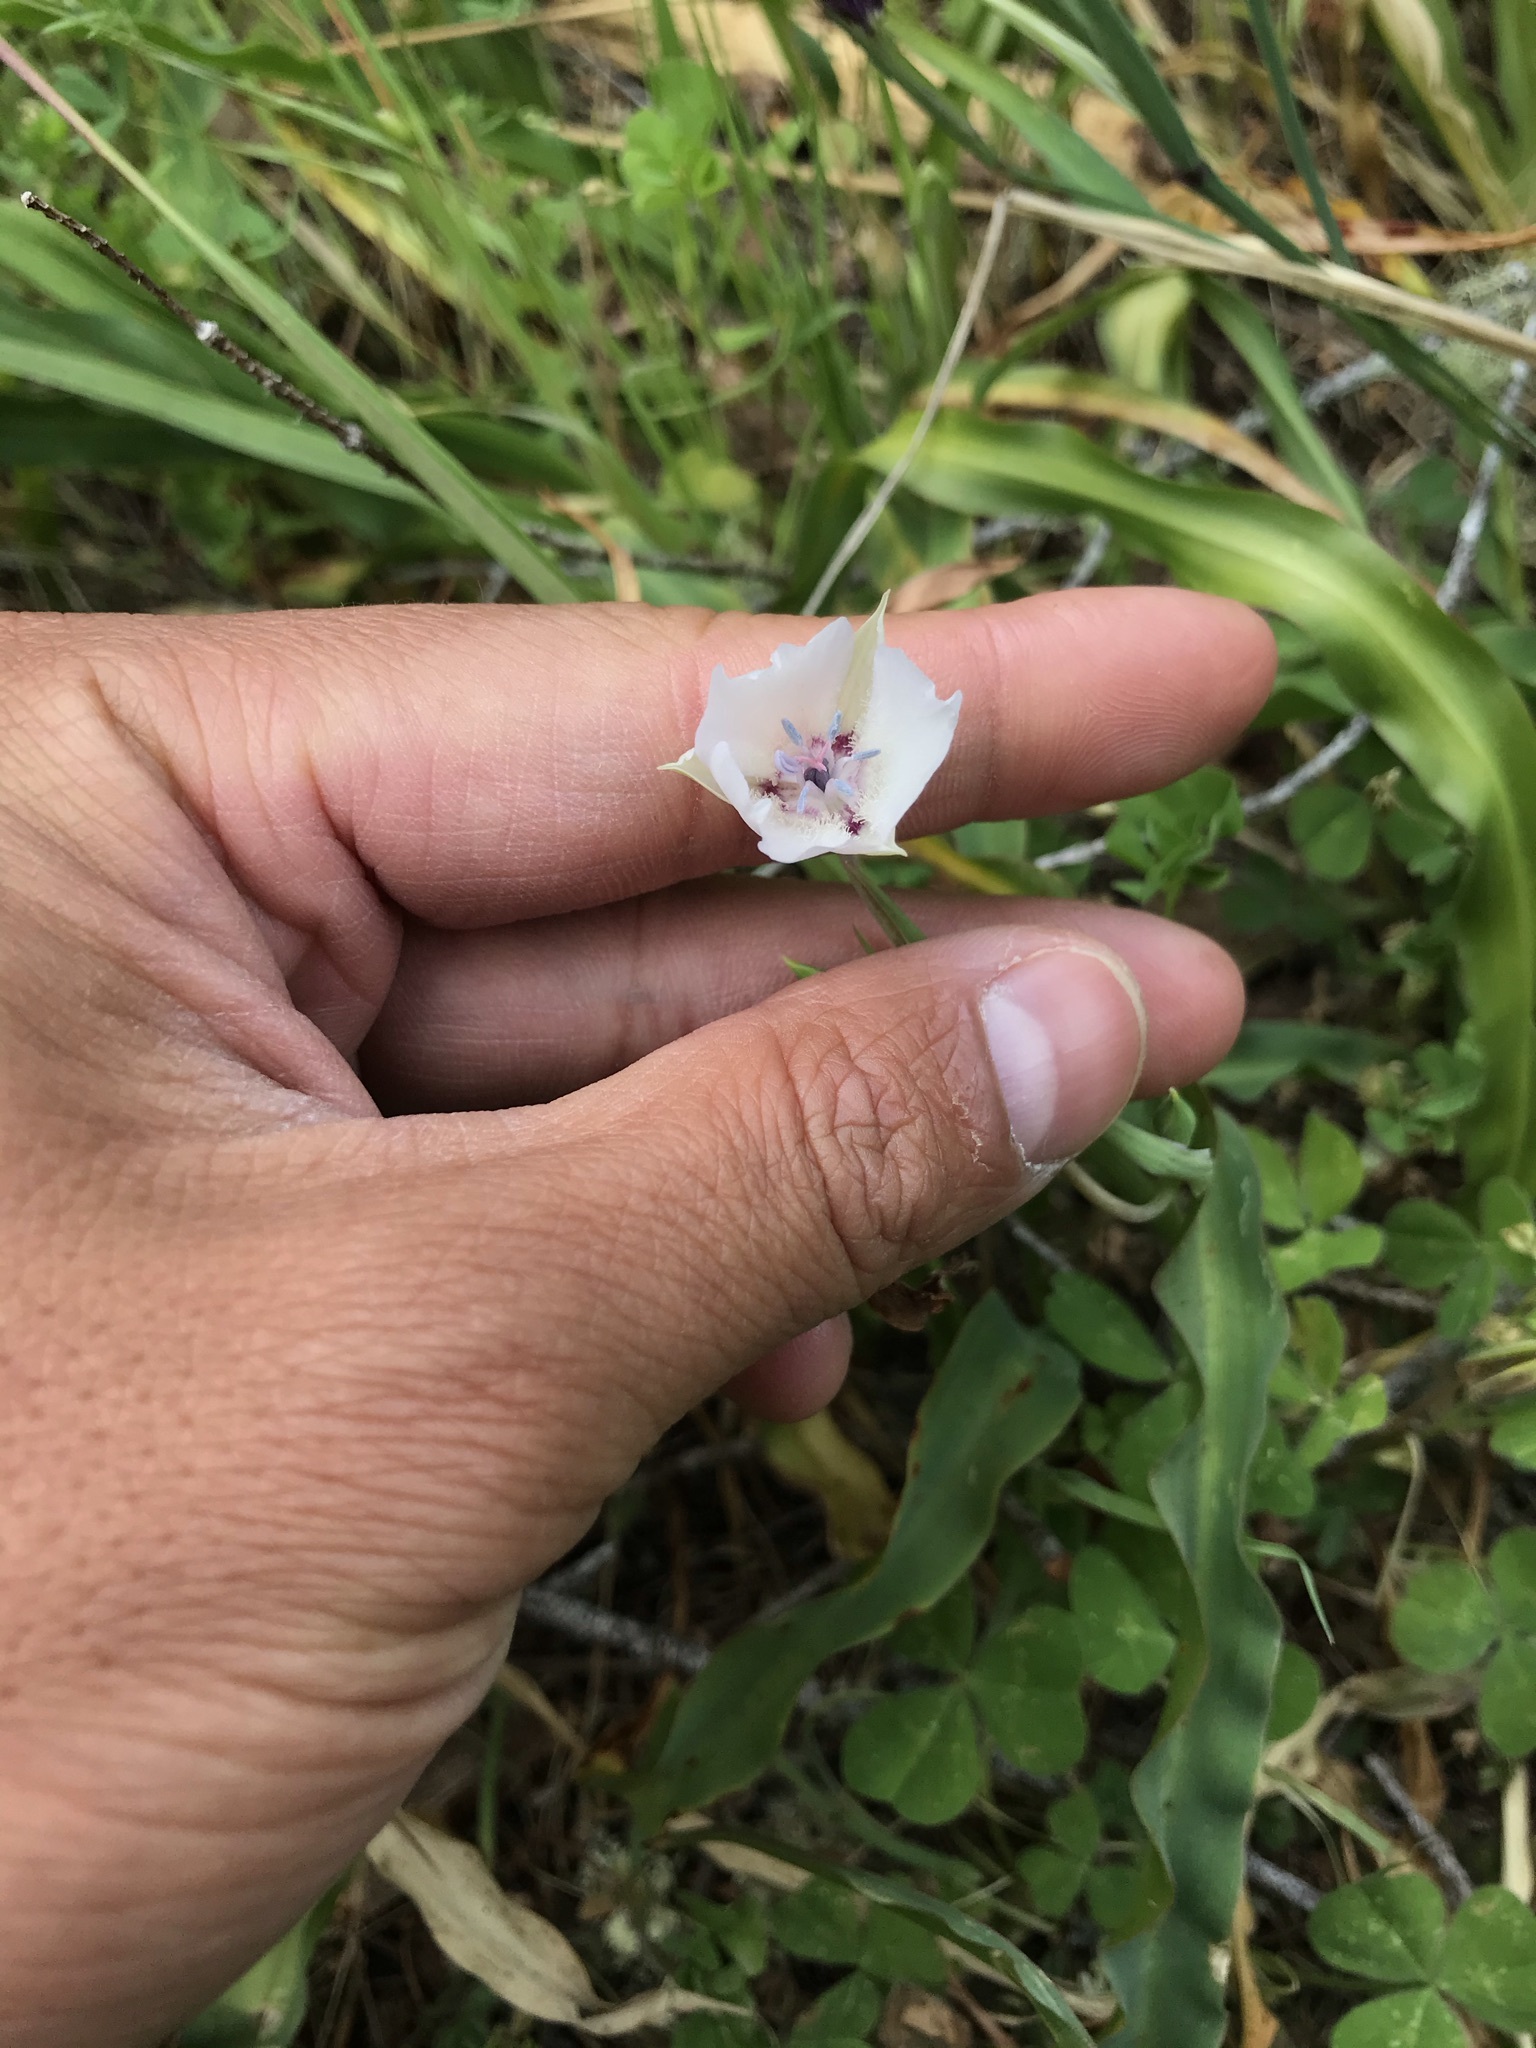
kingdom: Plantae
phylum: Tracheophyta
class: Liliopsida
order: Liliales
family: Liliaceae
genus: Calochortus
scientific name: Calochortus umbellatus
